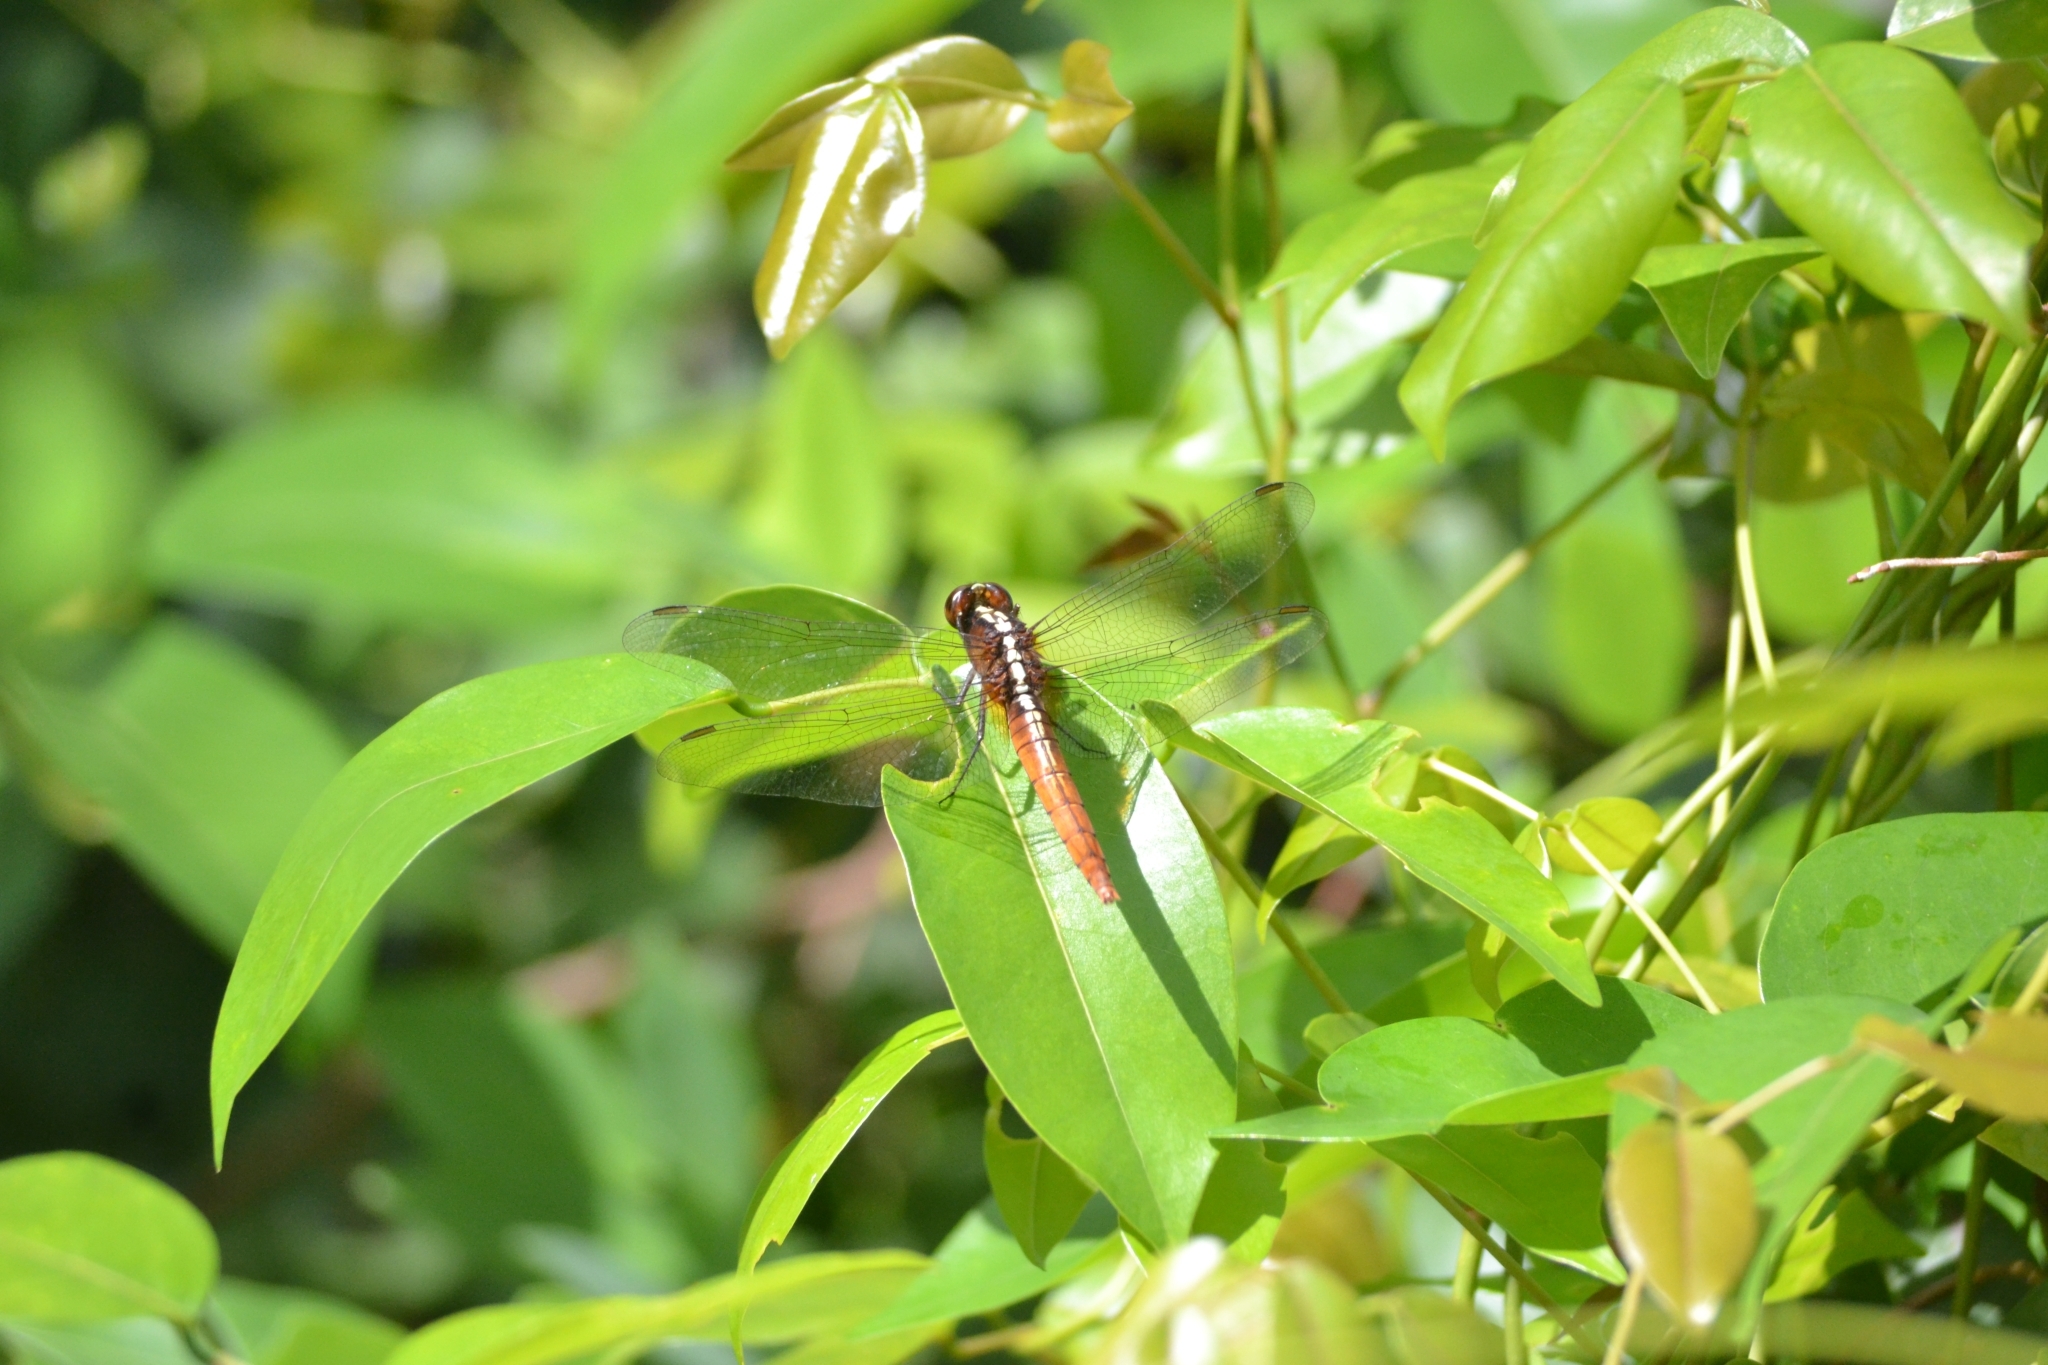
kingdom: Animalia
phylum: Arthropoda
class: Insecta
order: Odonata
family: Libellulidae
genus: Rhodothemis
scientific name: Rhodothemis rufa
